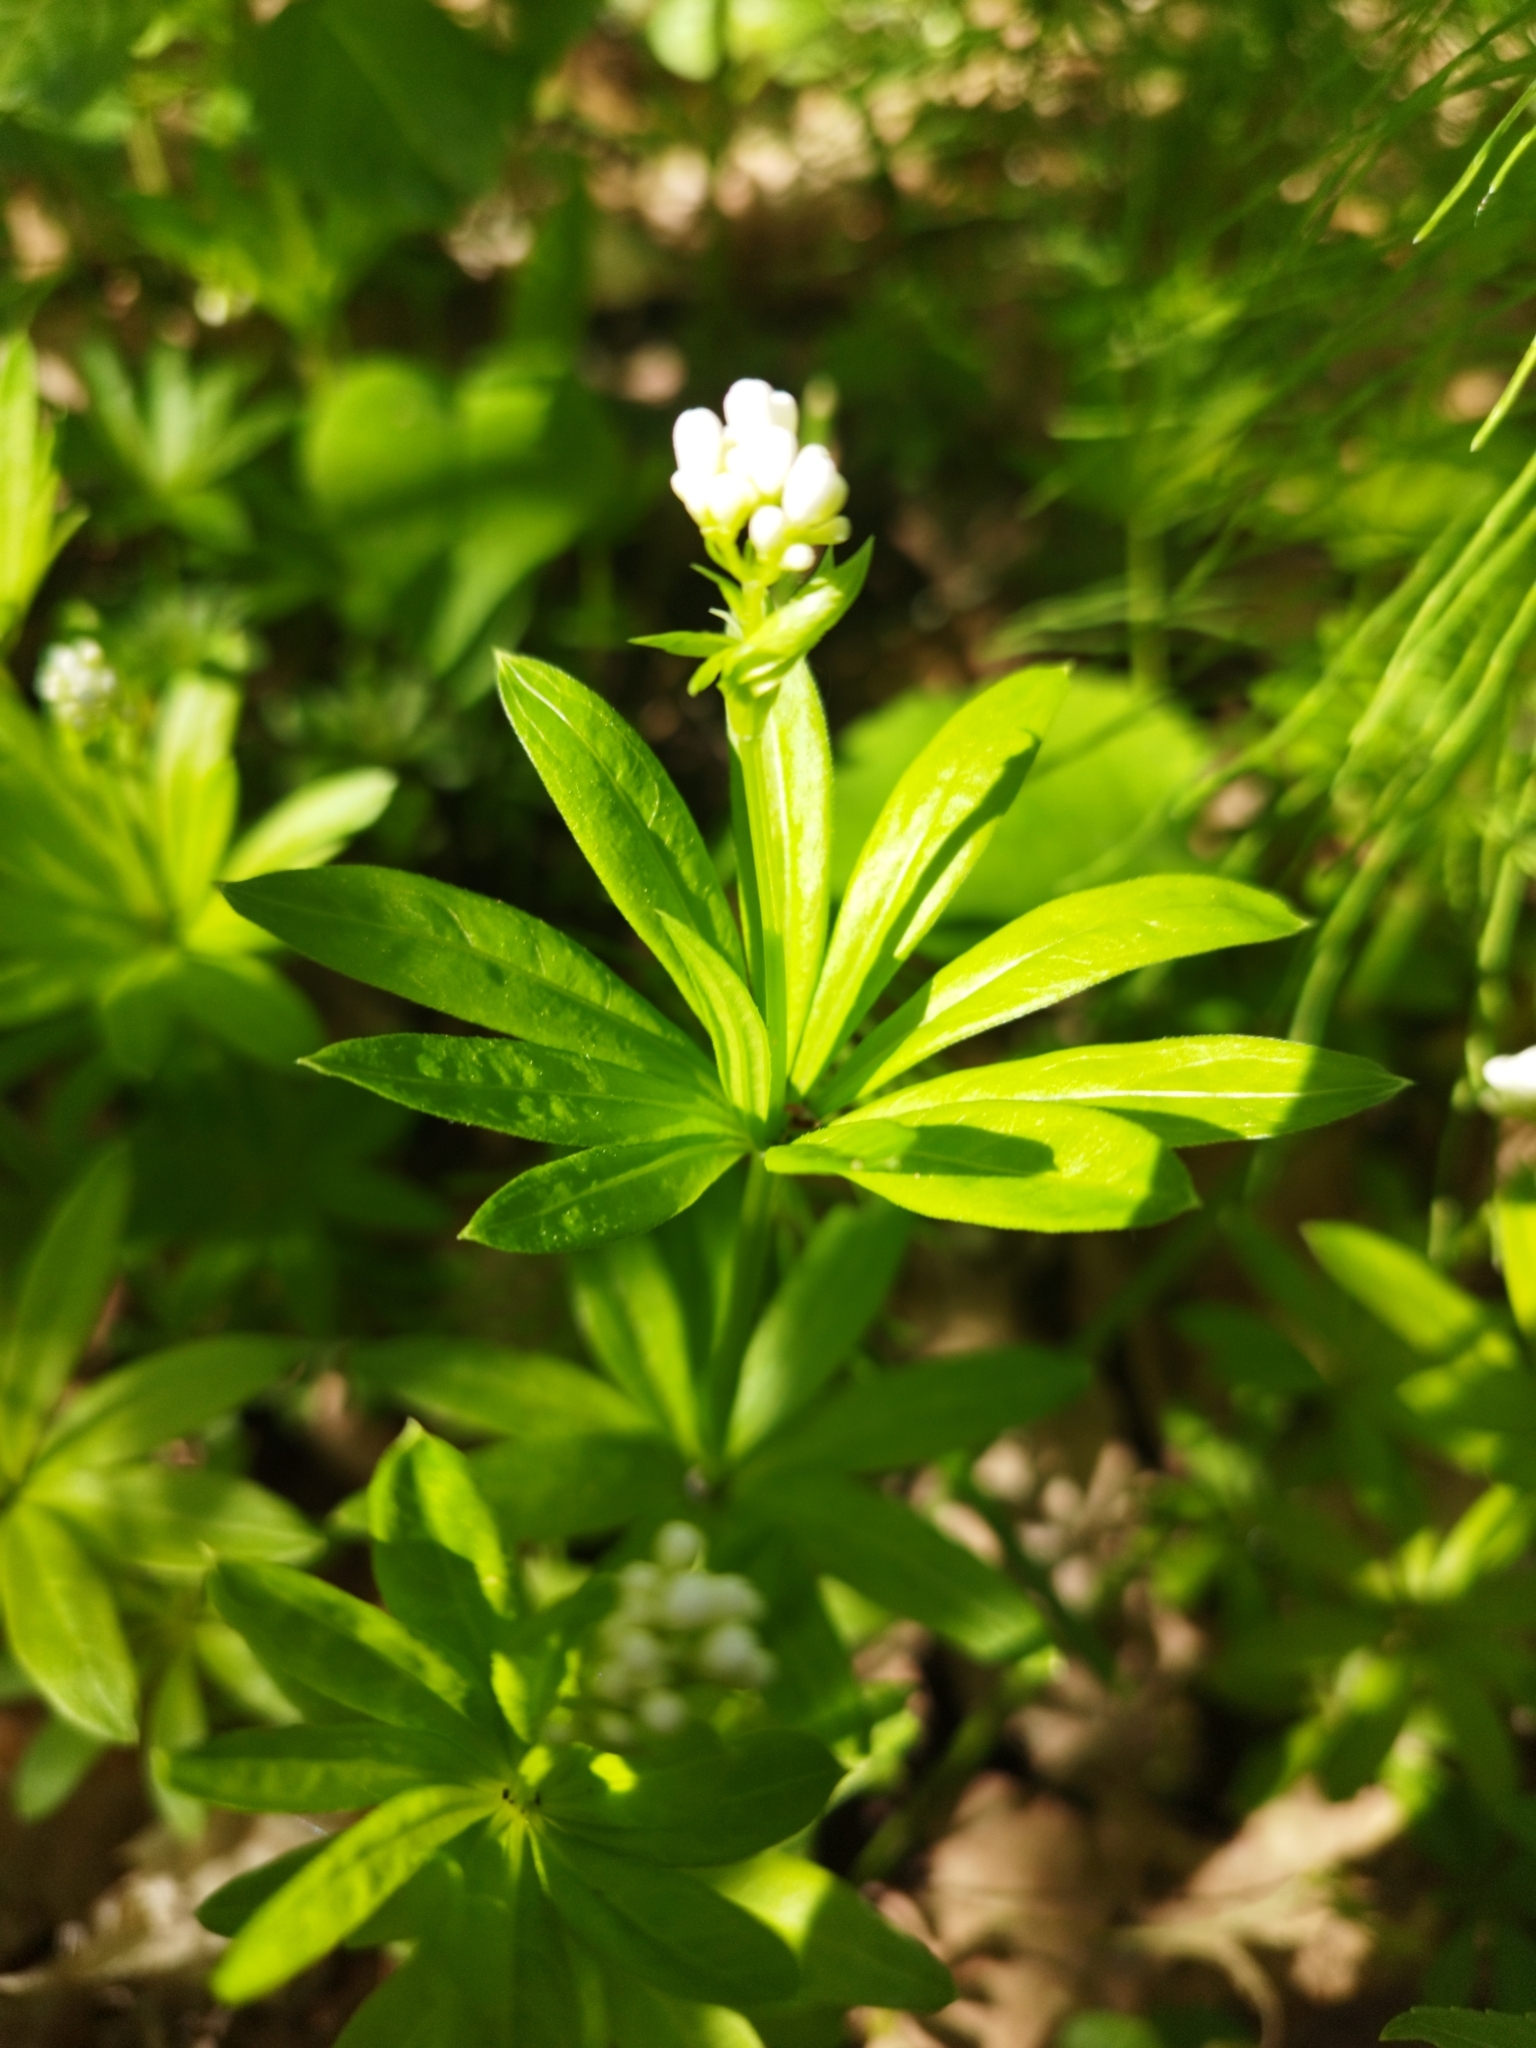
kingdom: Plantae
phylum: Tracheophyta
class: Magnoliopsida
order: Gentianales
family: Rubiaceae
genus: Galium
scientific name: Galium odoratum
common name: Sweet woodruff
